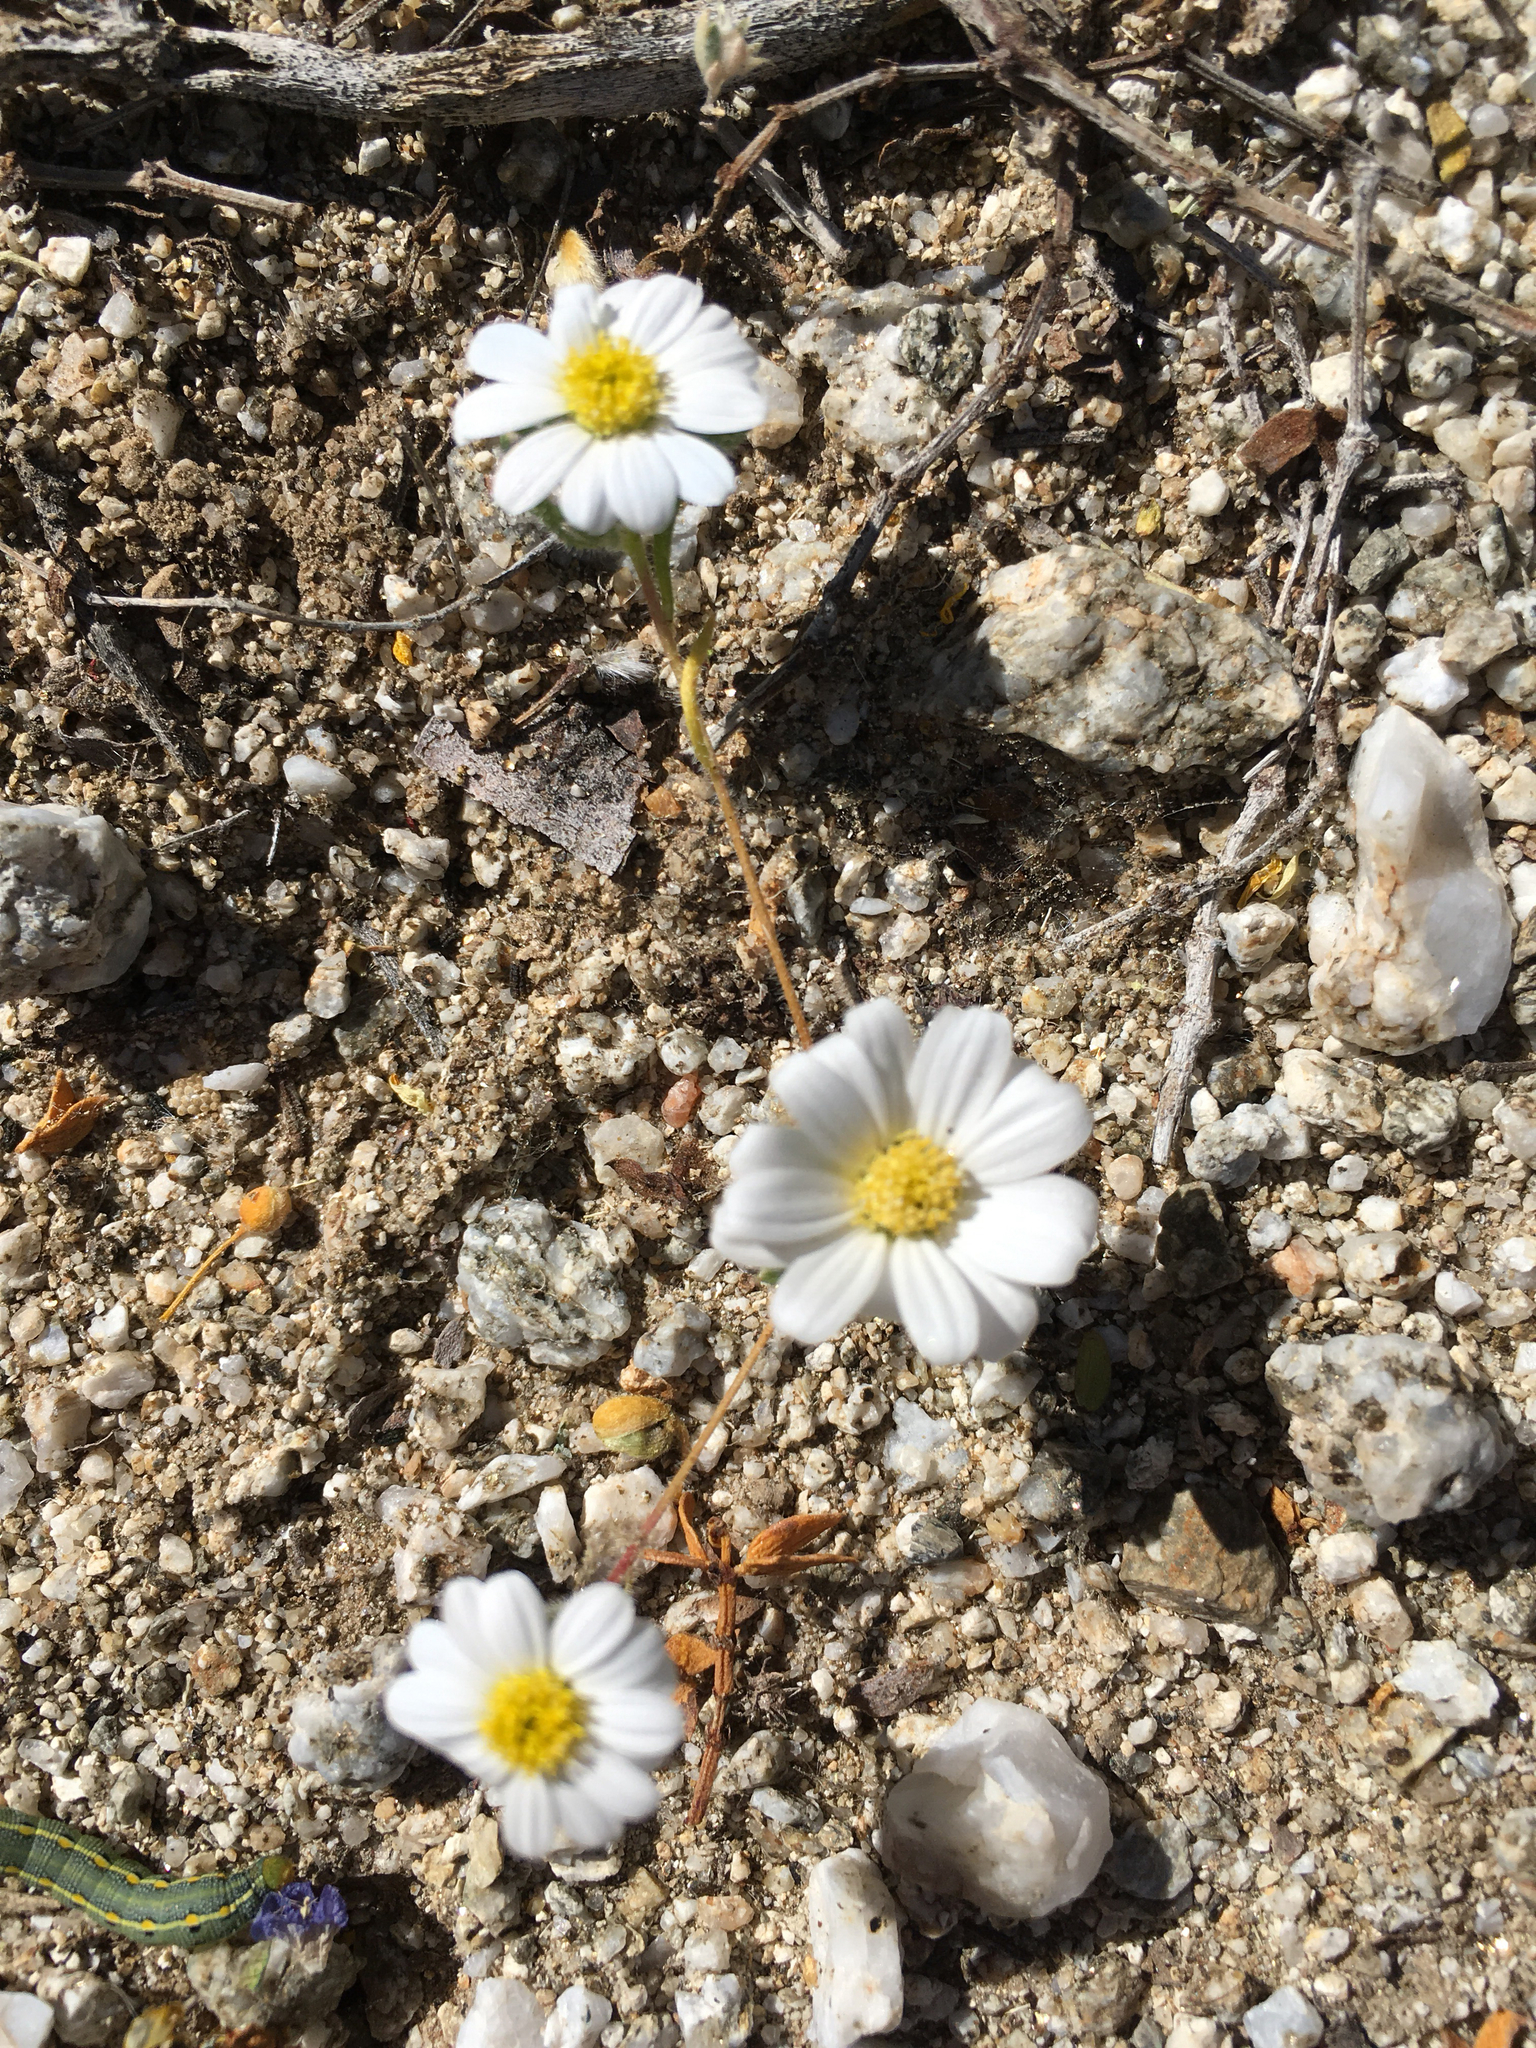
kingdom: Plantae
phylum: Tracheophyta
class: Magnoliopsida
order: Asterales
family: Asteraceae
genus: Monoptilon
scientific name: Monoptilon bellioides
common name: Bristly desertstar
